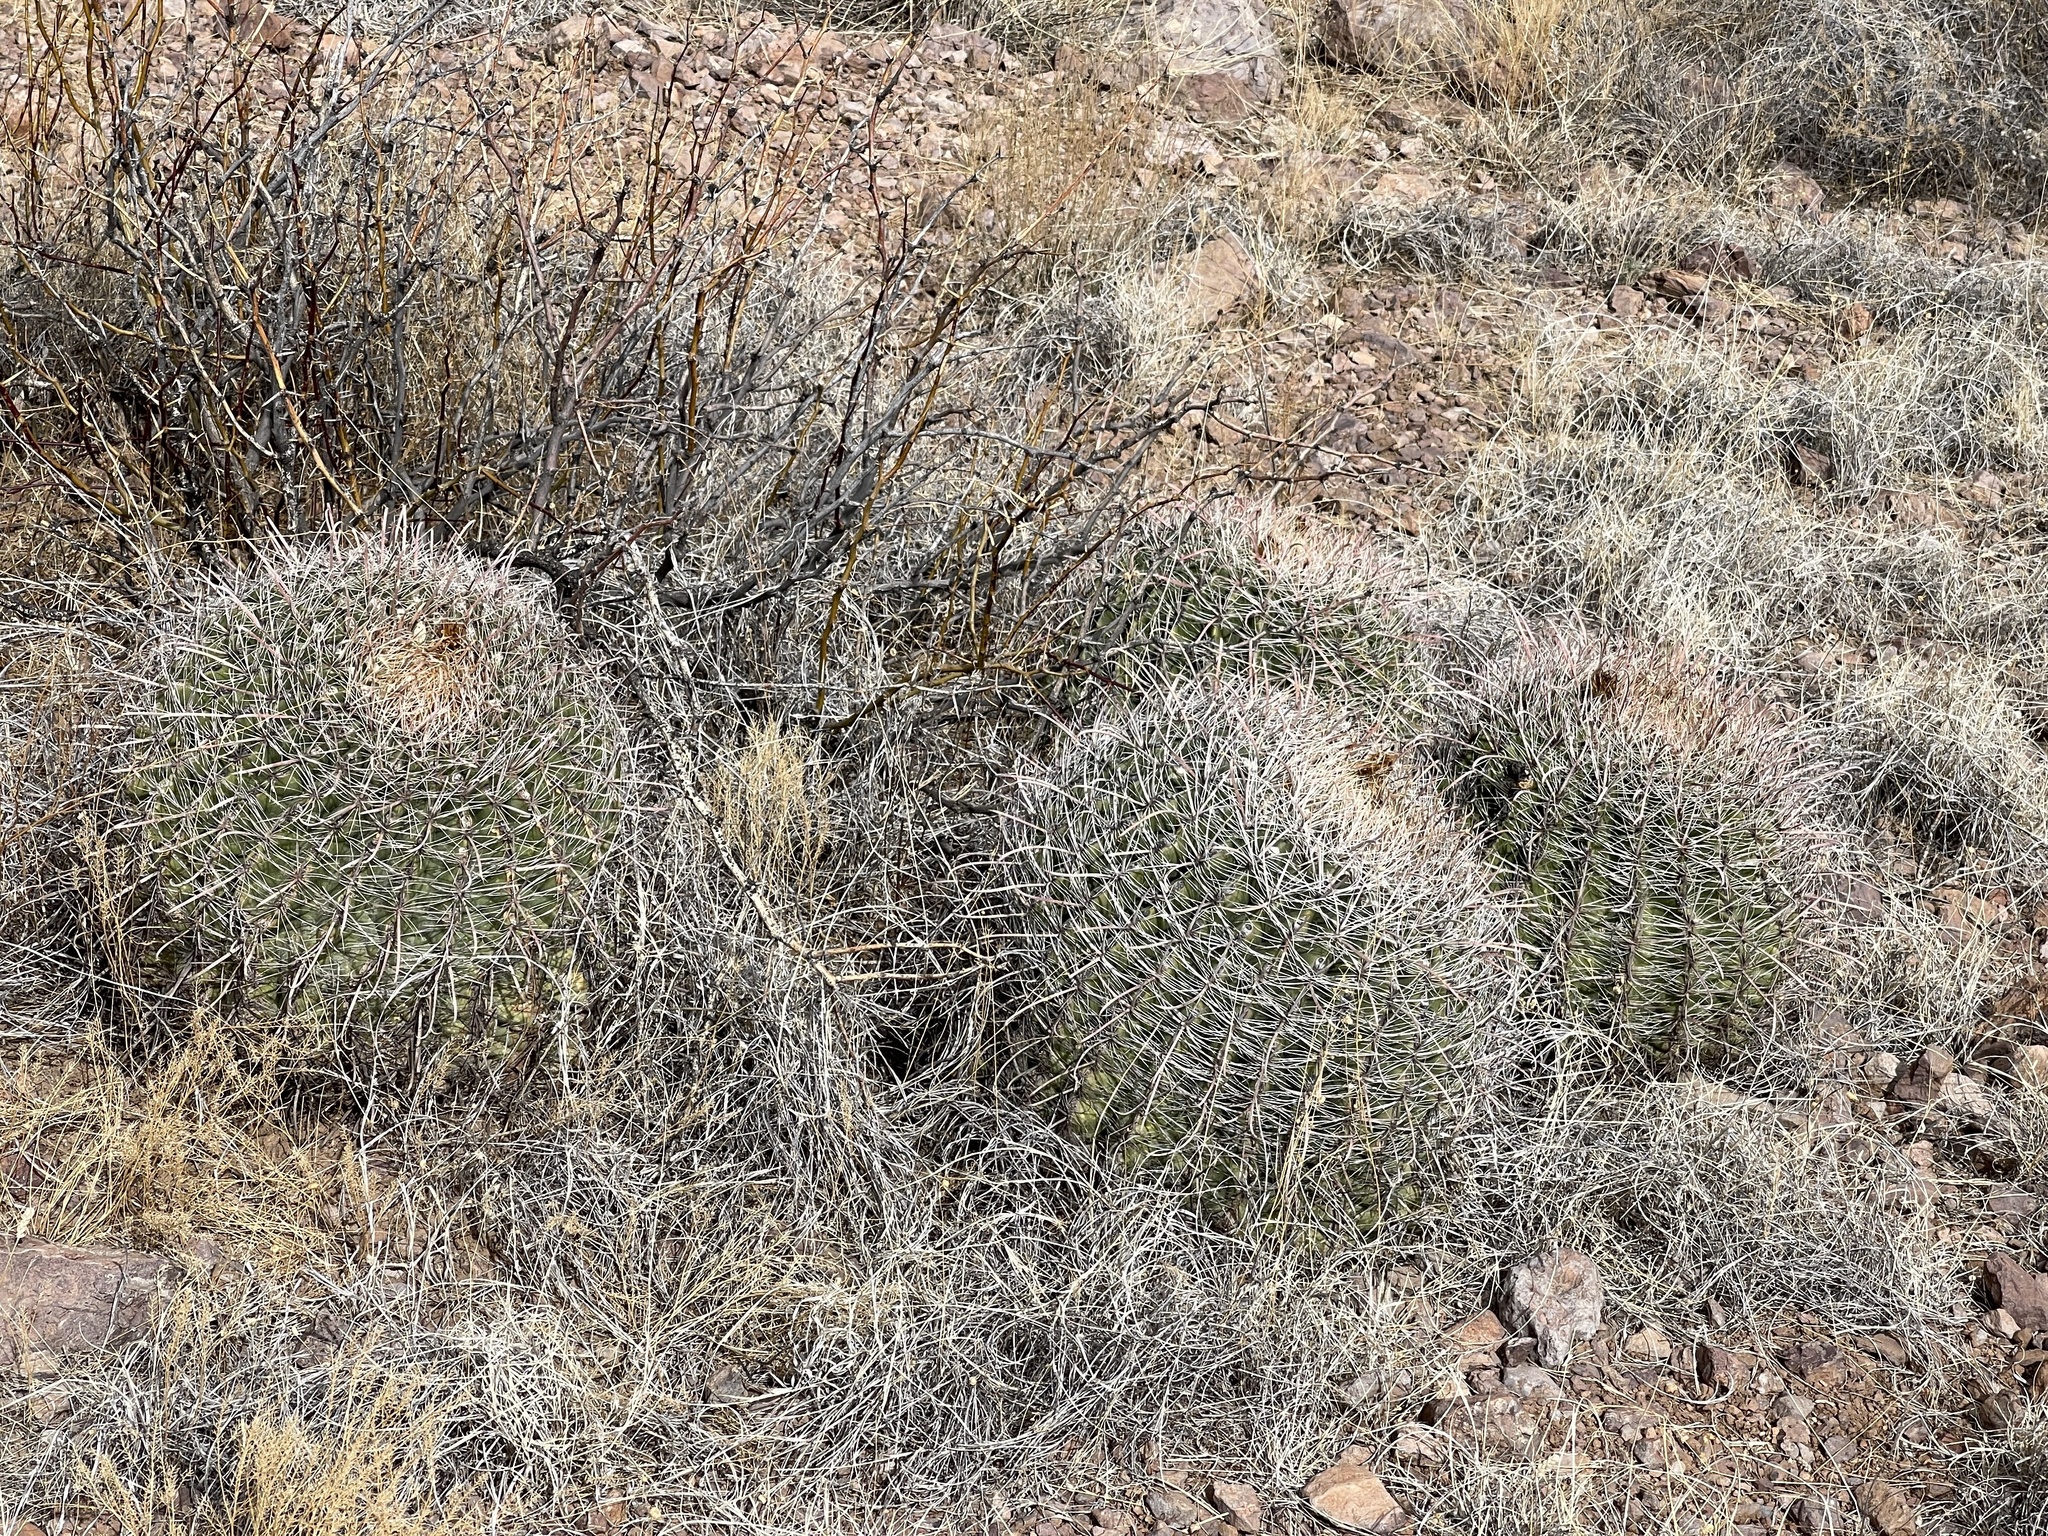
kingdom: Plantae
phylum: Tracheophyta
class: Magnoliopsida
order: Caryophyllales
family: Cactaceae
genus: Ferocactus
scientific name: Ferocactus wislizeni
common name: Candy barrel cactus
